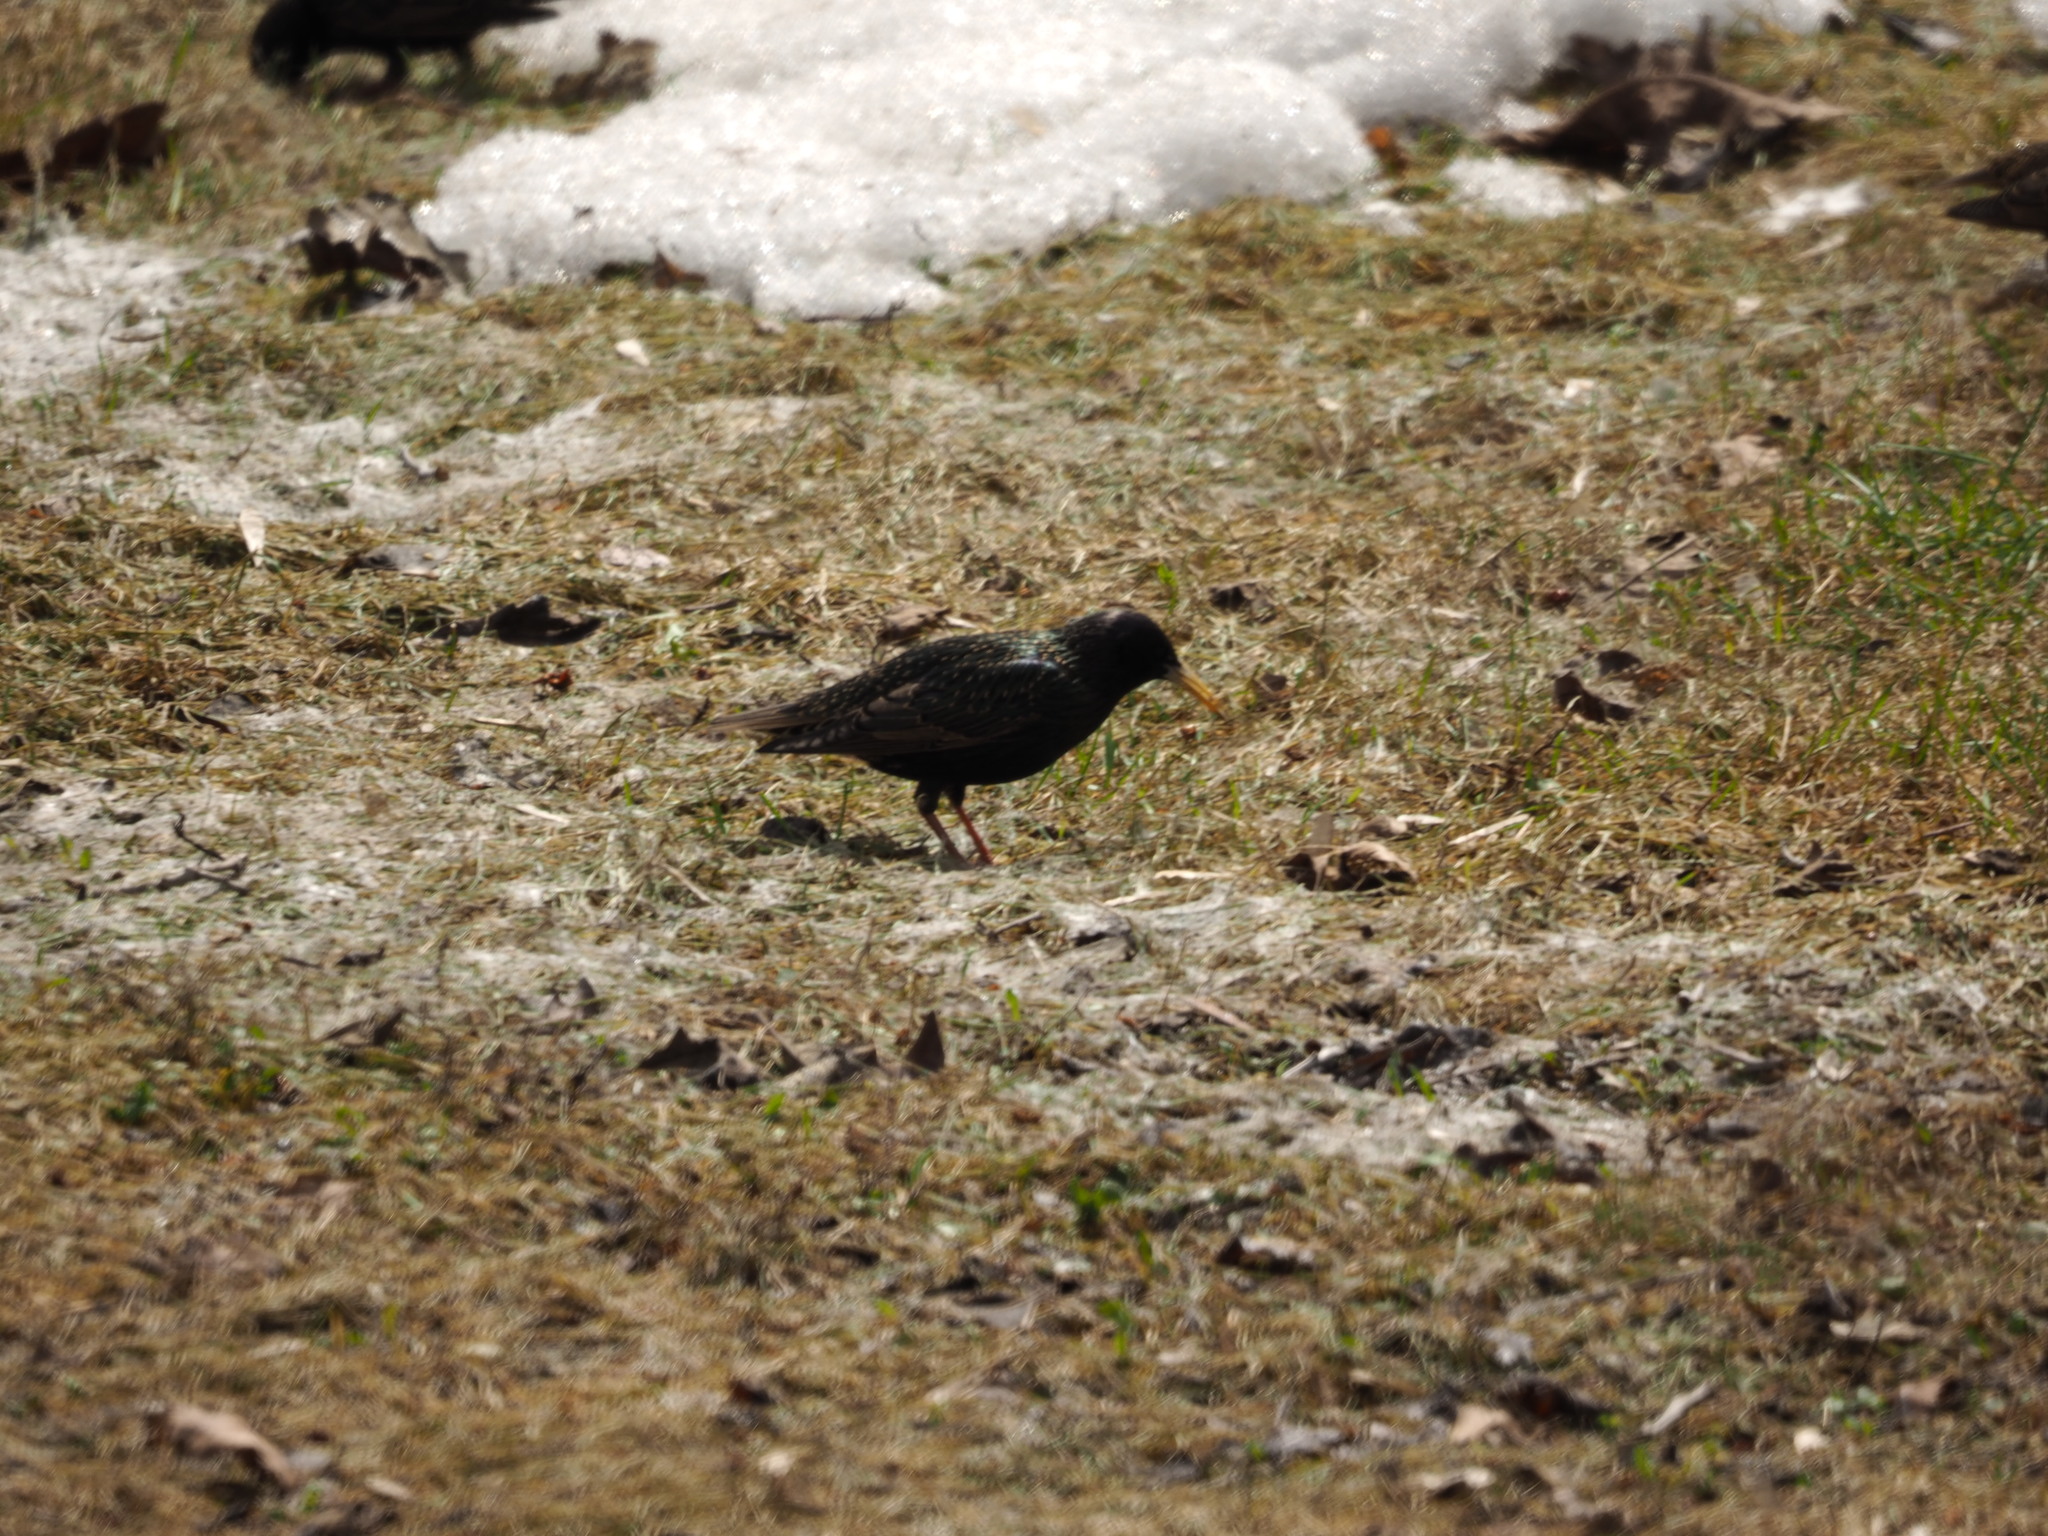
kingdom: Animalia
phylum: Chordata
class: Aves
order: Passeriformes
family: Sturnidae
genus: Sturnus
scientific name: Sturnus vulgaris
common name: Common starling
